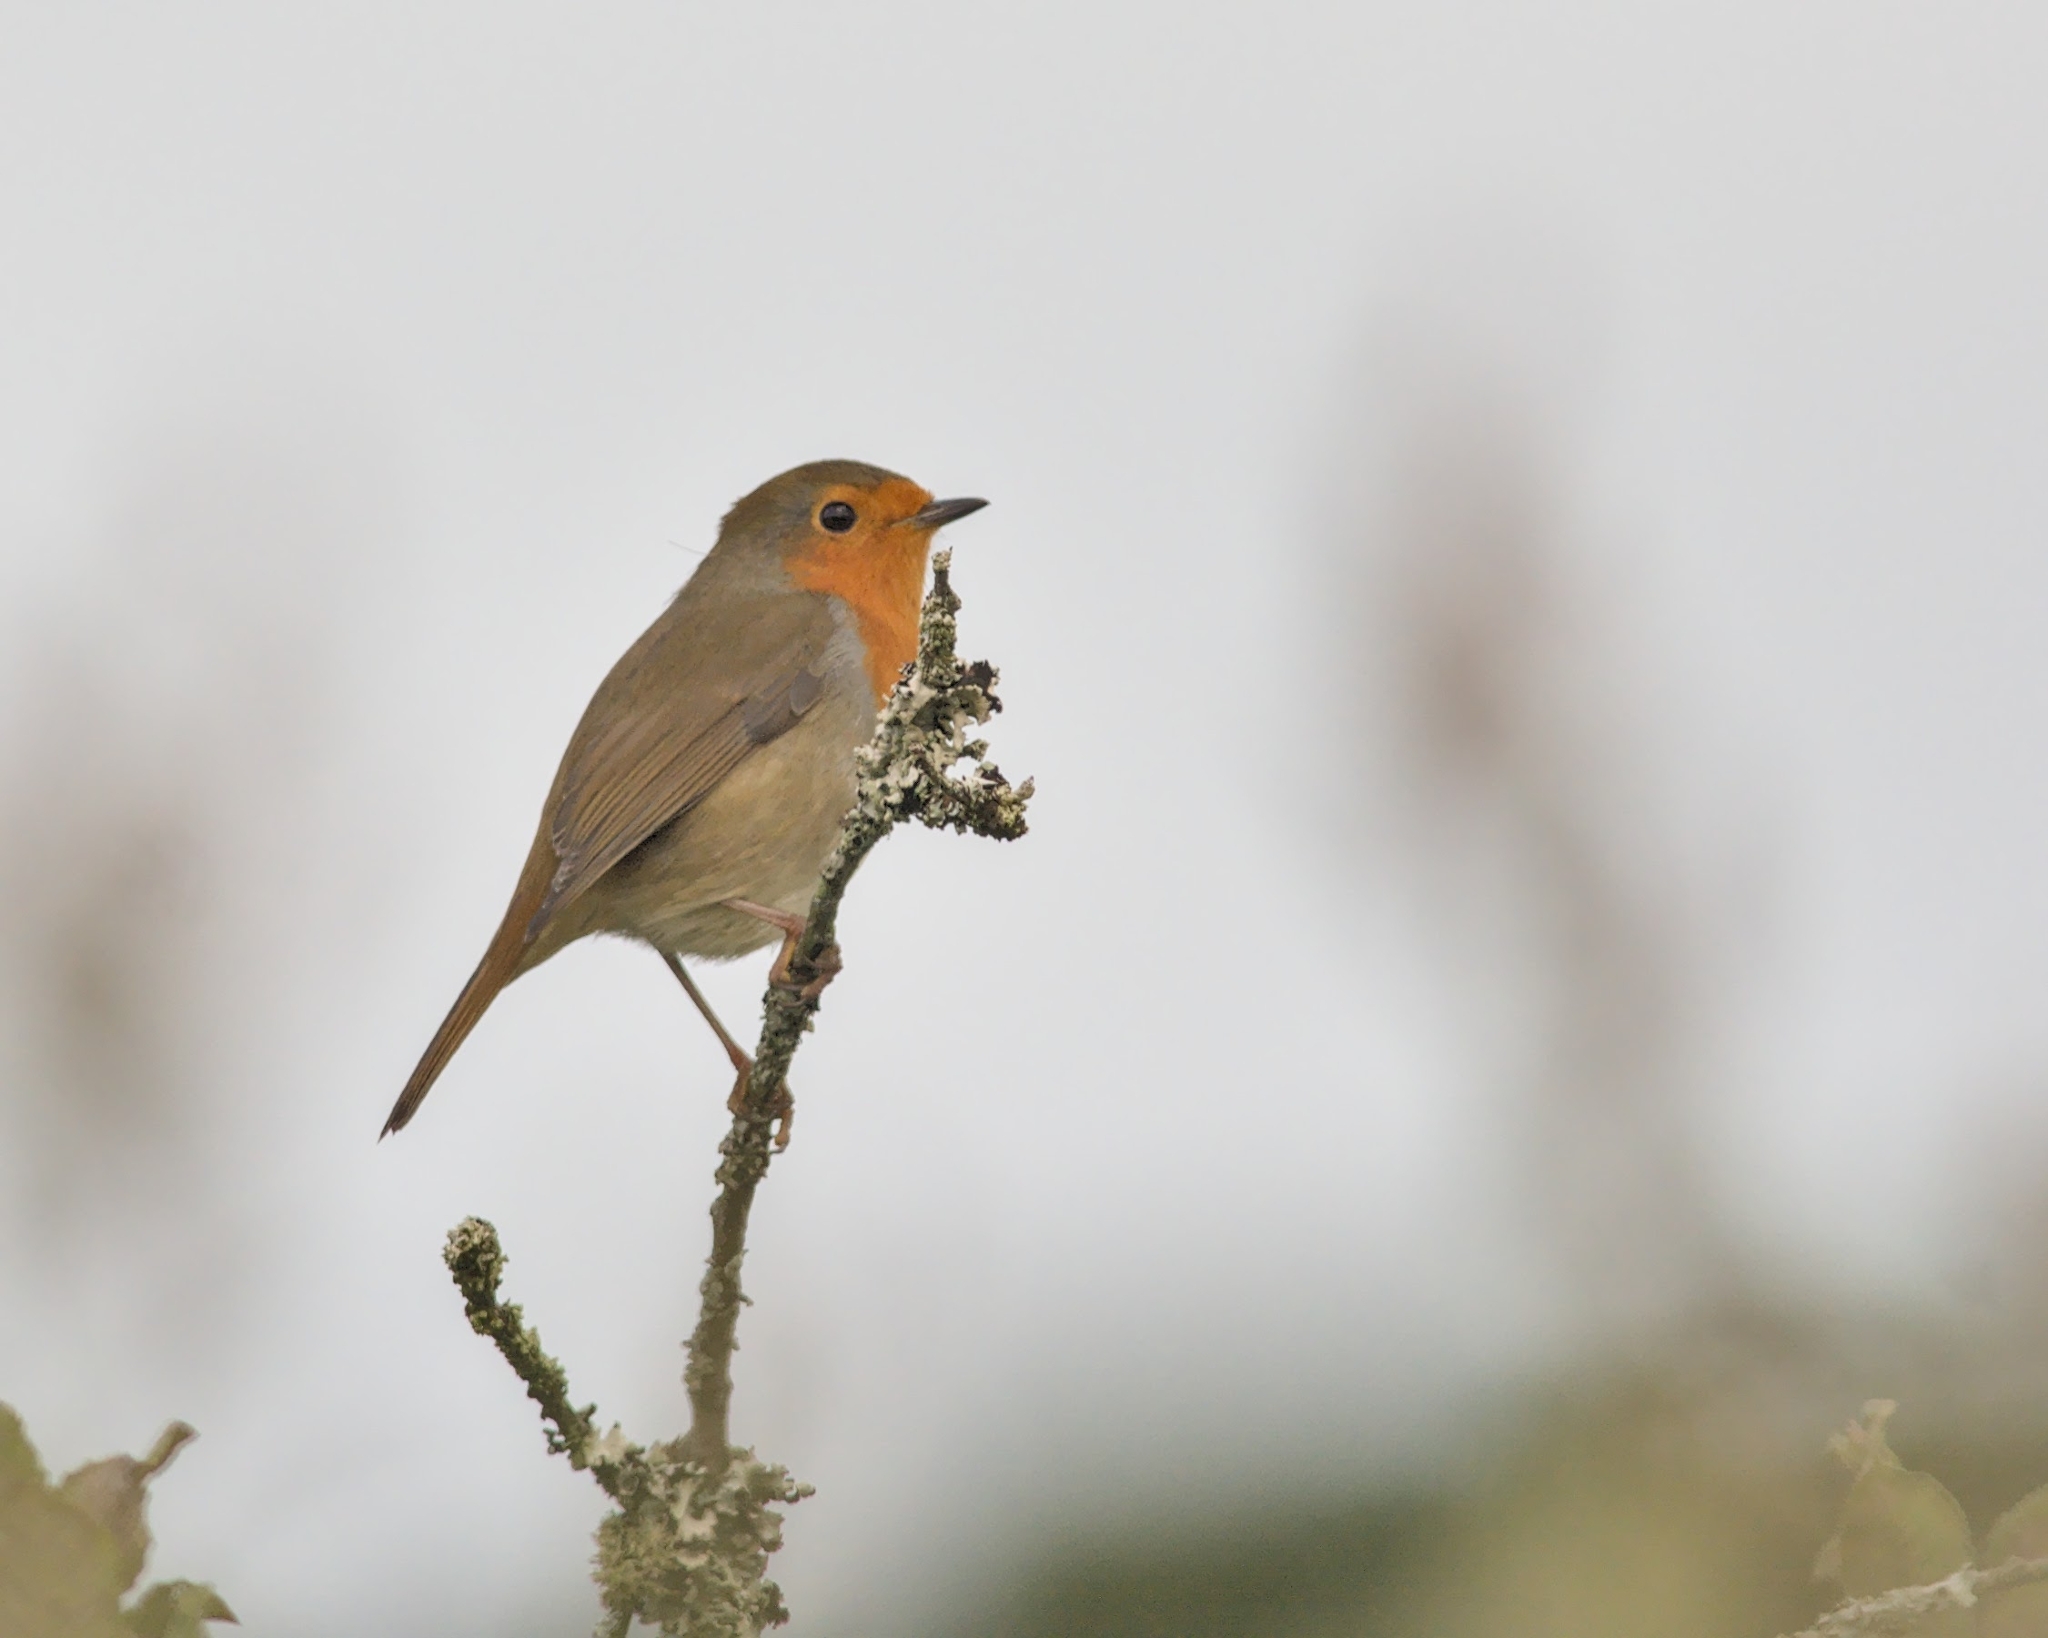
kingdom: Animalia
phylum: Chordata
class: Aves
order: Passeriformes
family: Muscicapidae
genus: Erithacus
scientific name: Erithacus rubecula
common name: European robin
